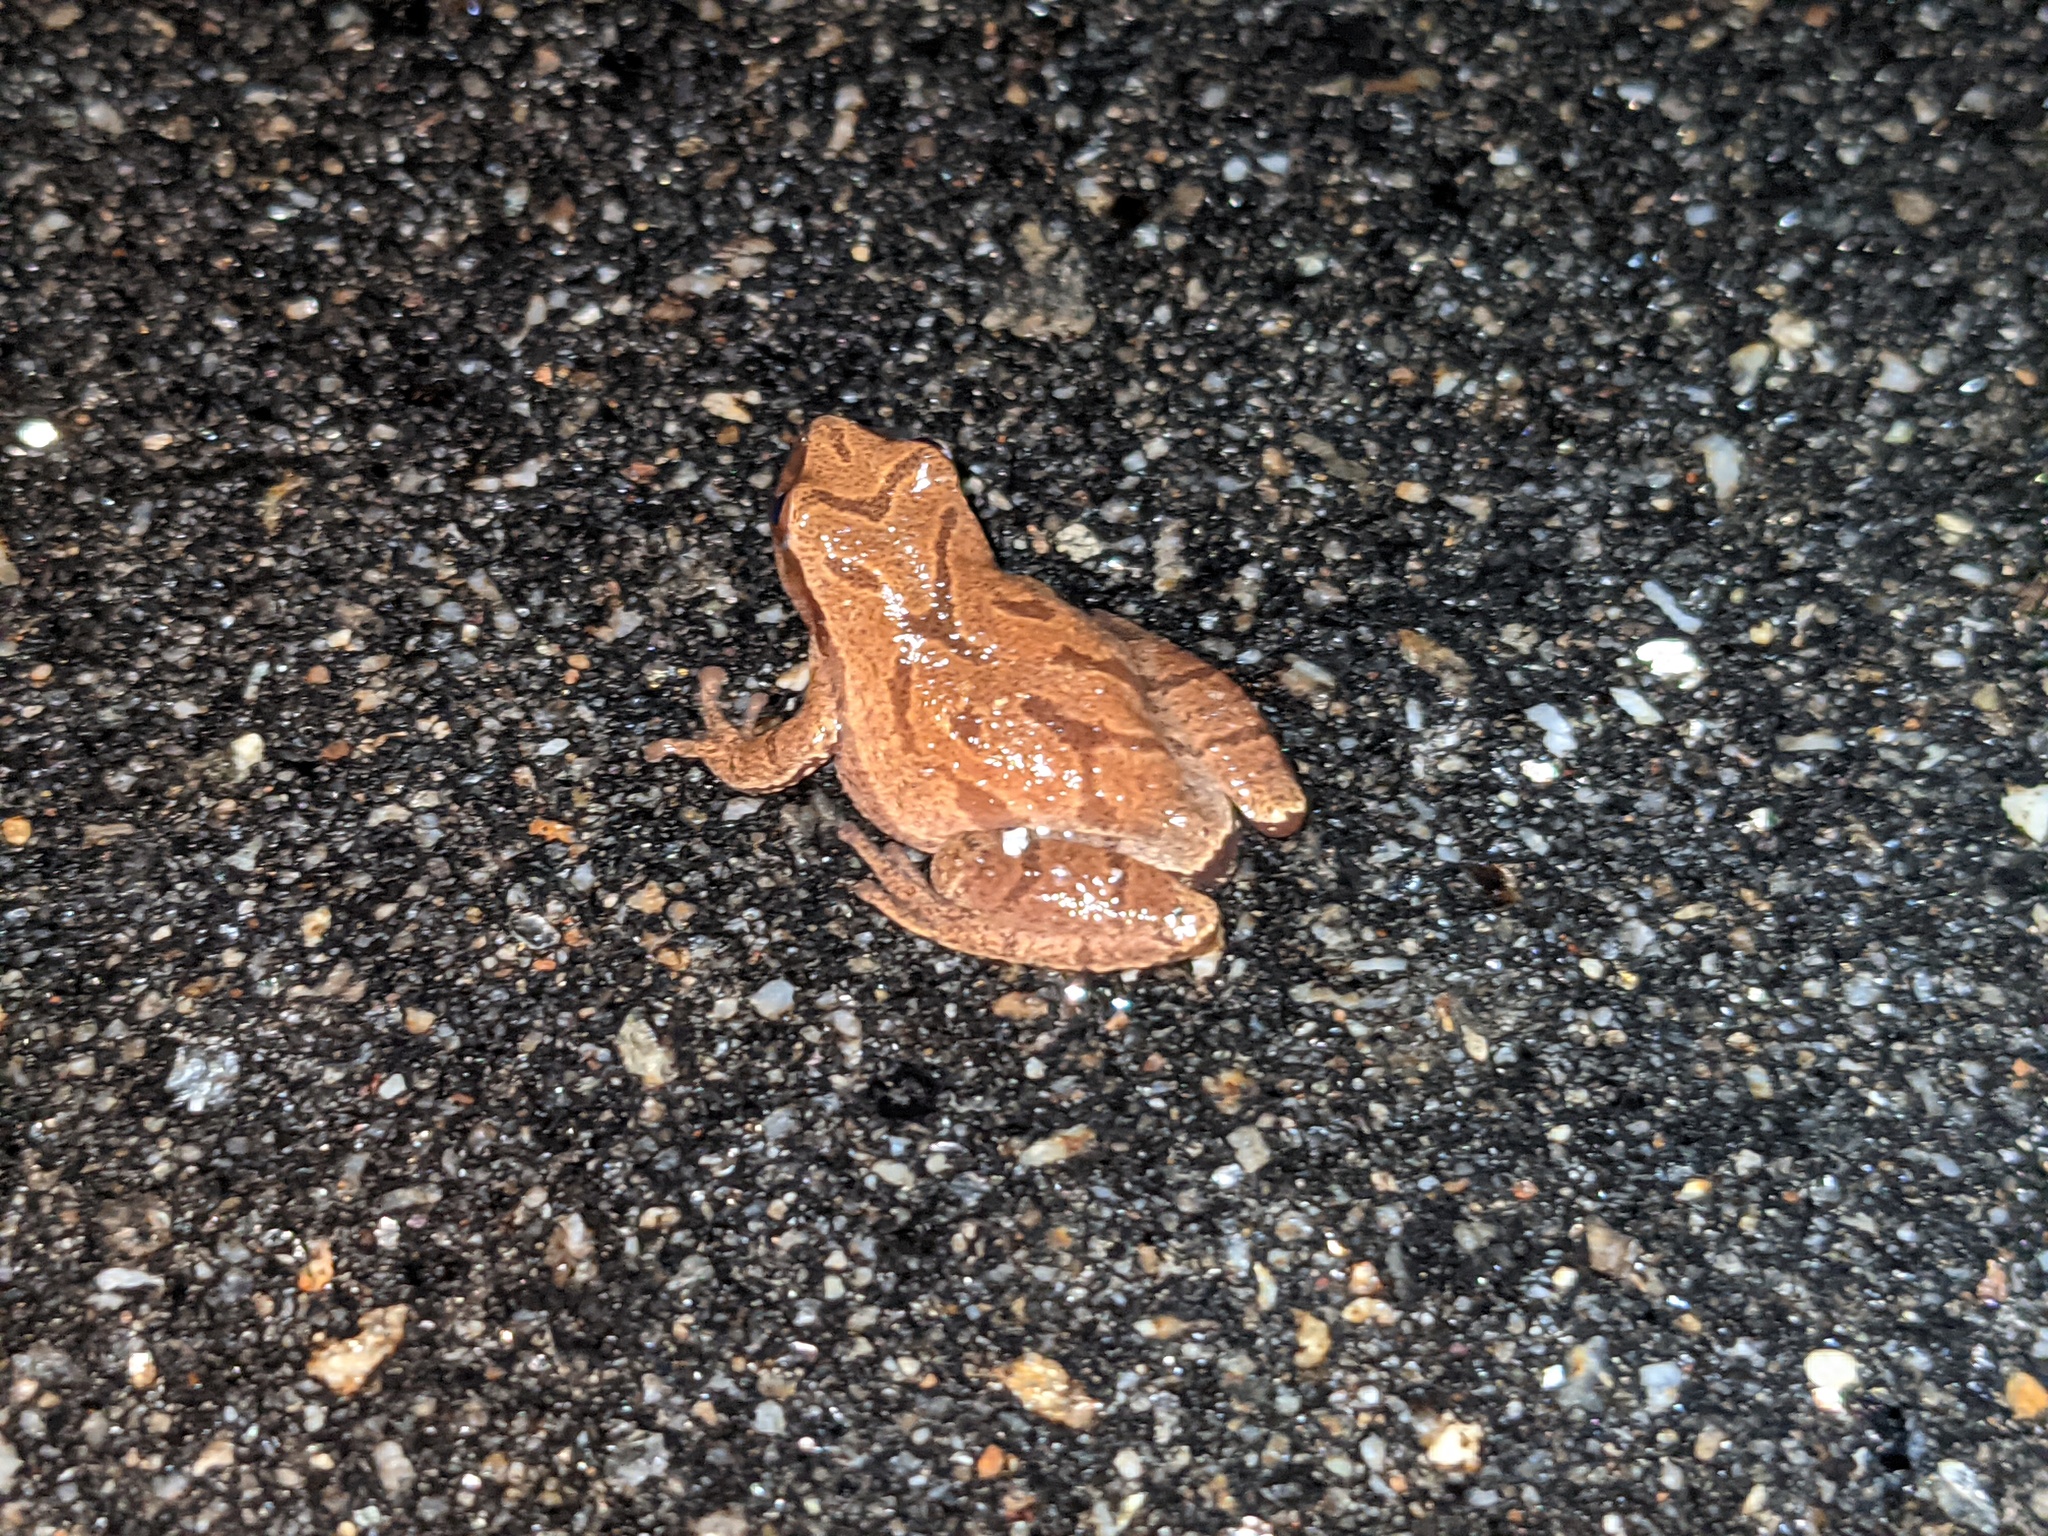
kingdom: Animalia
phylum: Chordata
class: Amphibia
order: Anura
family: Hylidae
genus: Pseudacris
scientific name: Pseudacris crucifer
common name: Spring peeper
